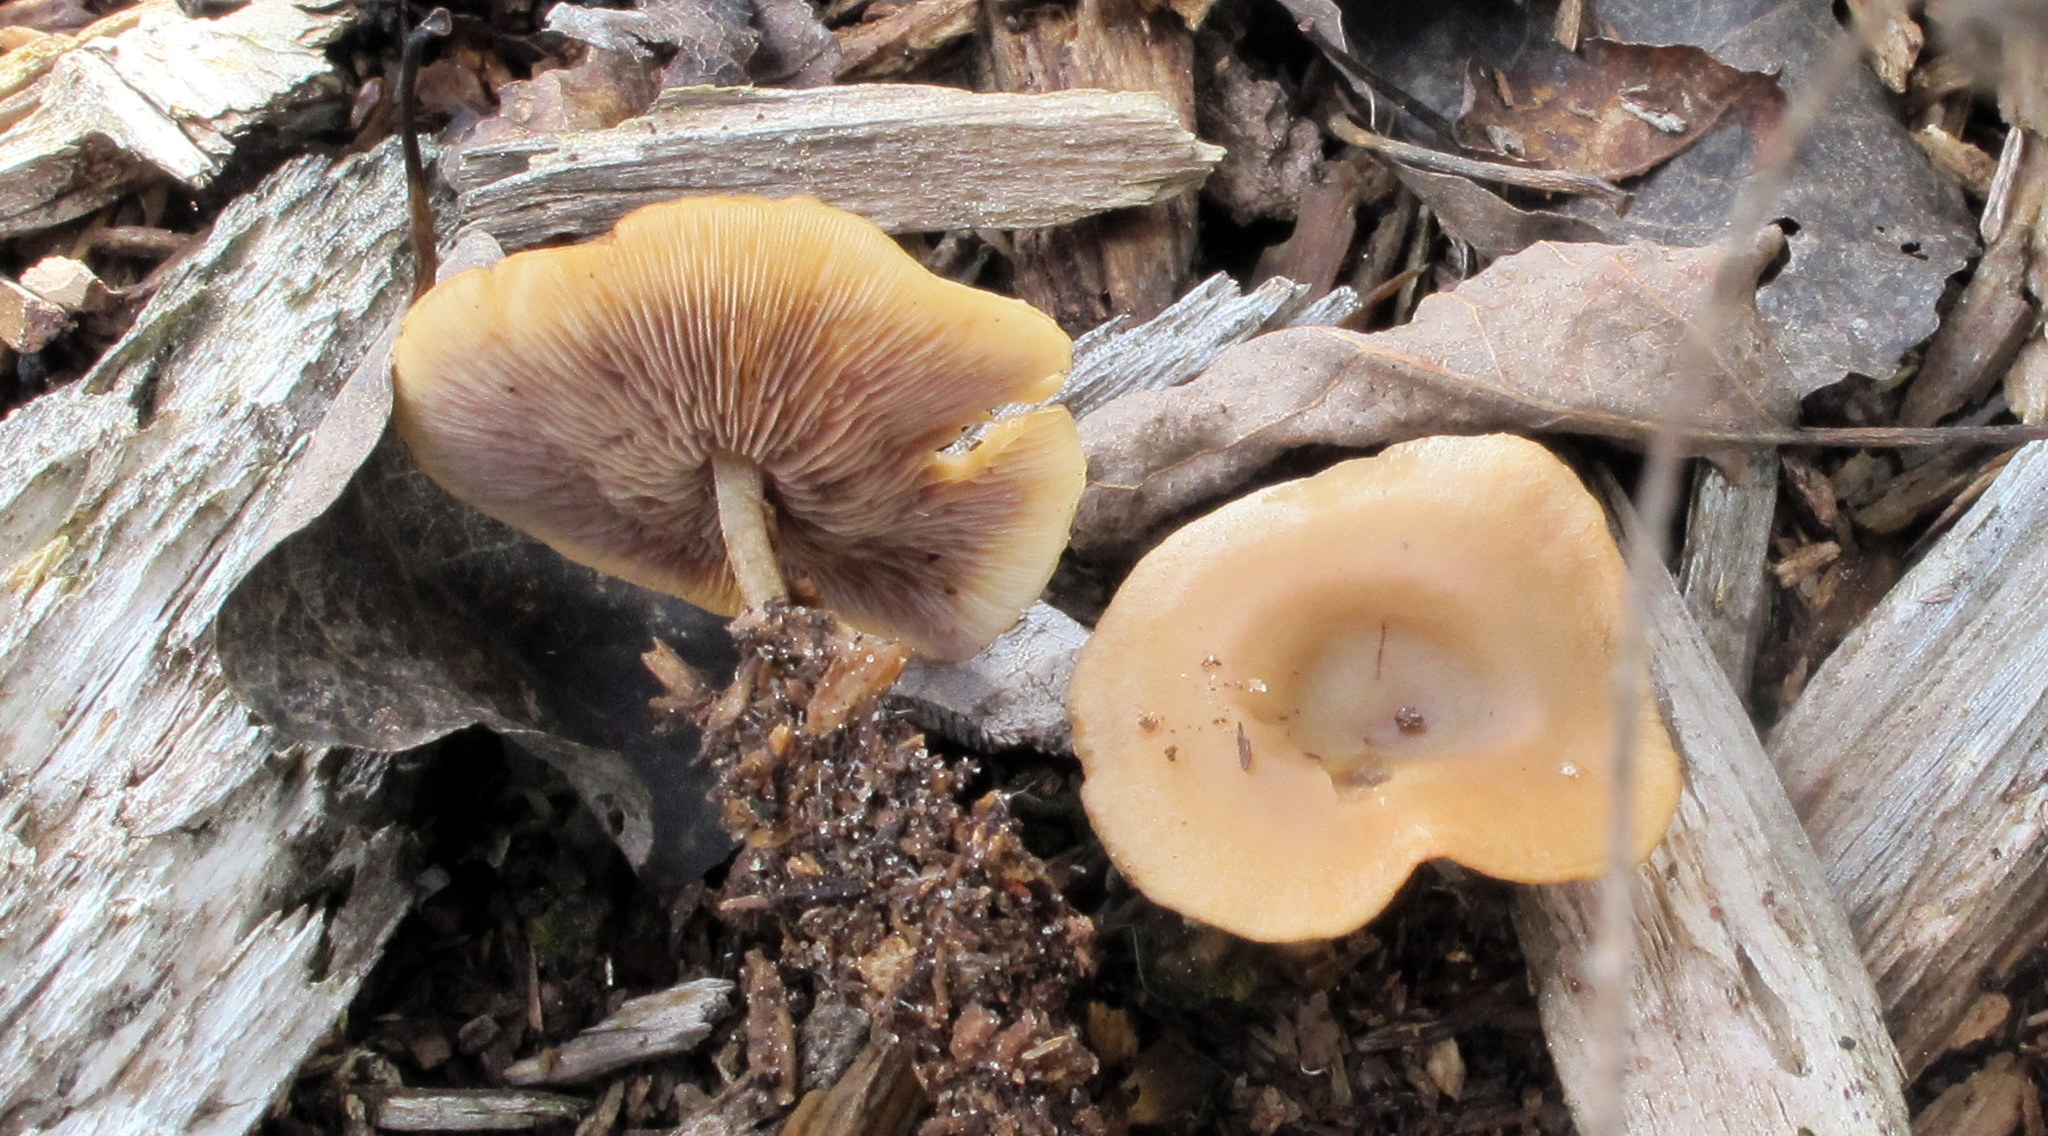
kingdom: Fungi
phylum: Basidiomycota
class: Agaricomycetes
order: Agaricales
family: Marasmiaceae
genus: Baeospora
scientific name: Baeospora myriadophylla
